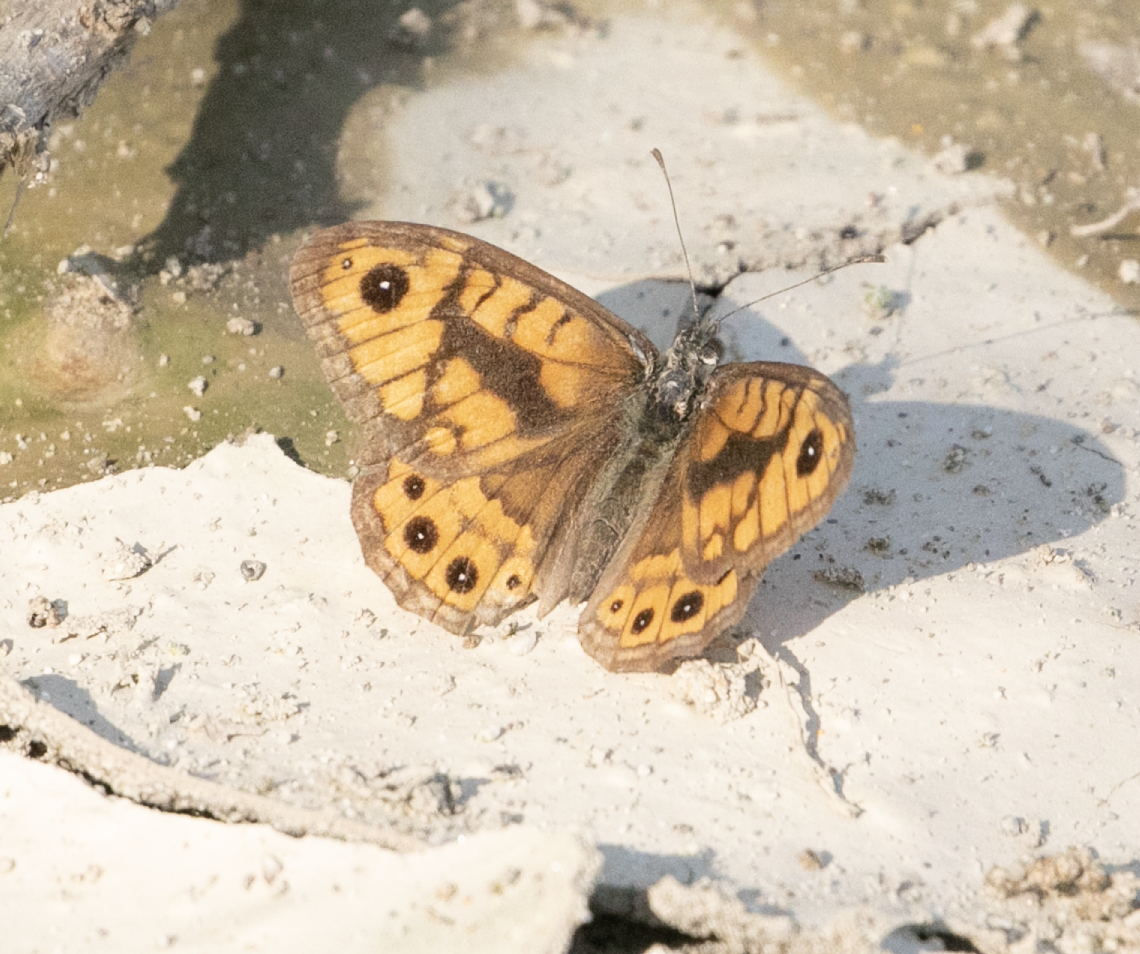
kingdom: Animalia
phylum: Arthropoda
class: Insecta
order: Lepidoptera
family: Nymphalidae
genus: Pararge
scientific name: Pararge Lasiommata megera
